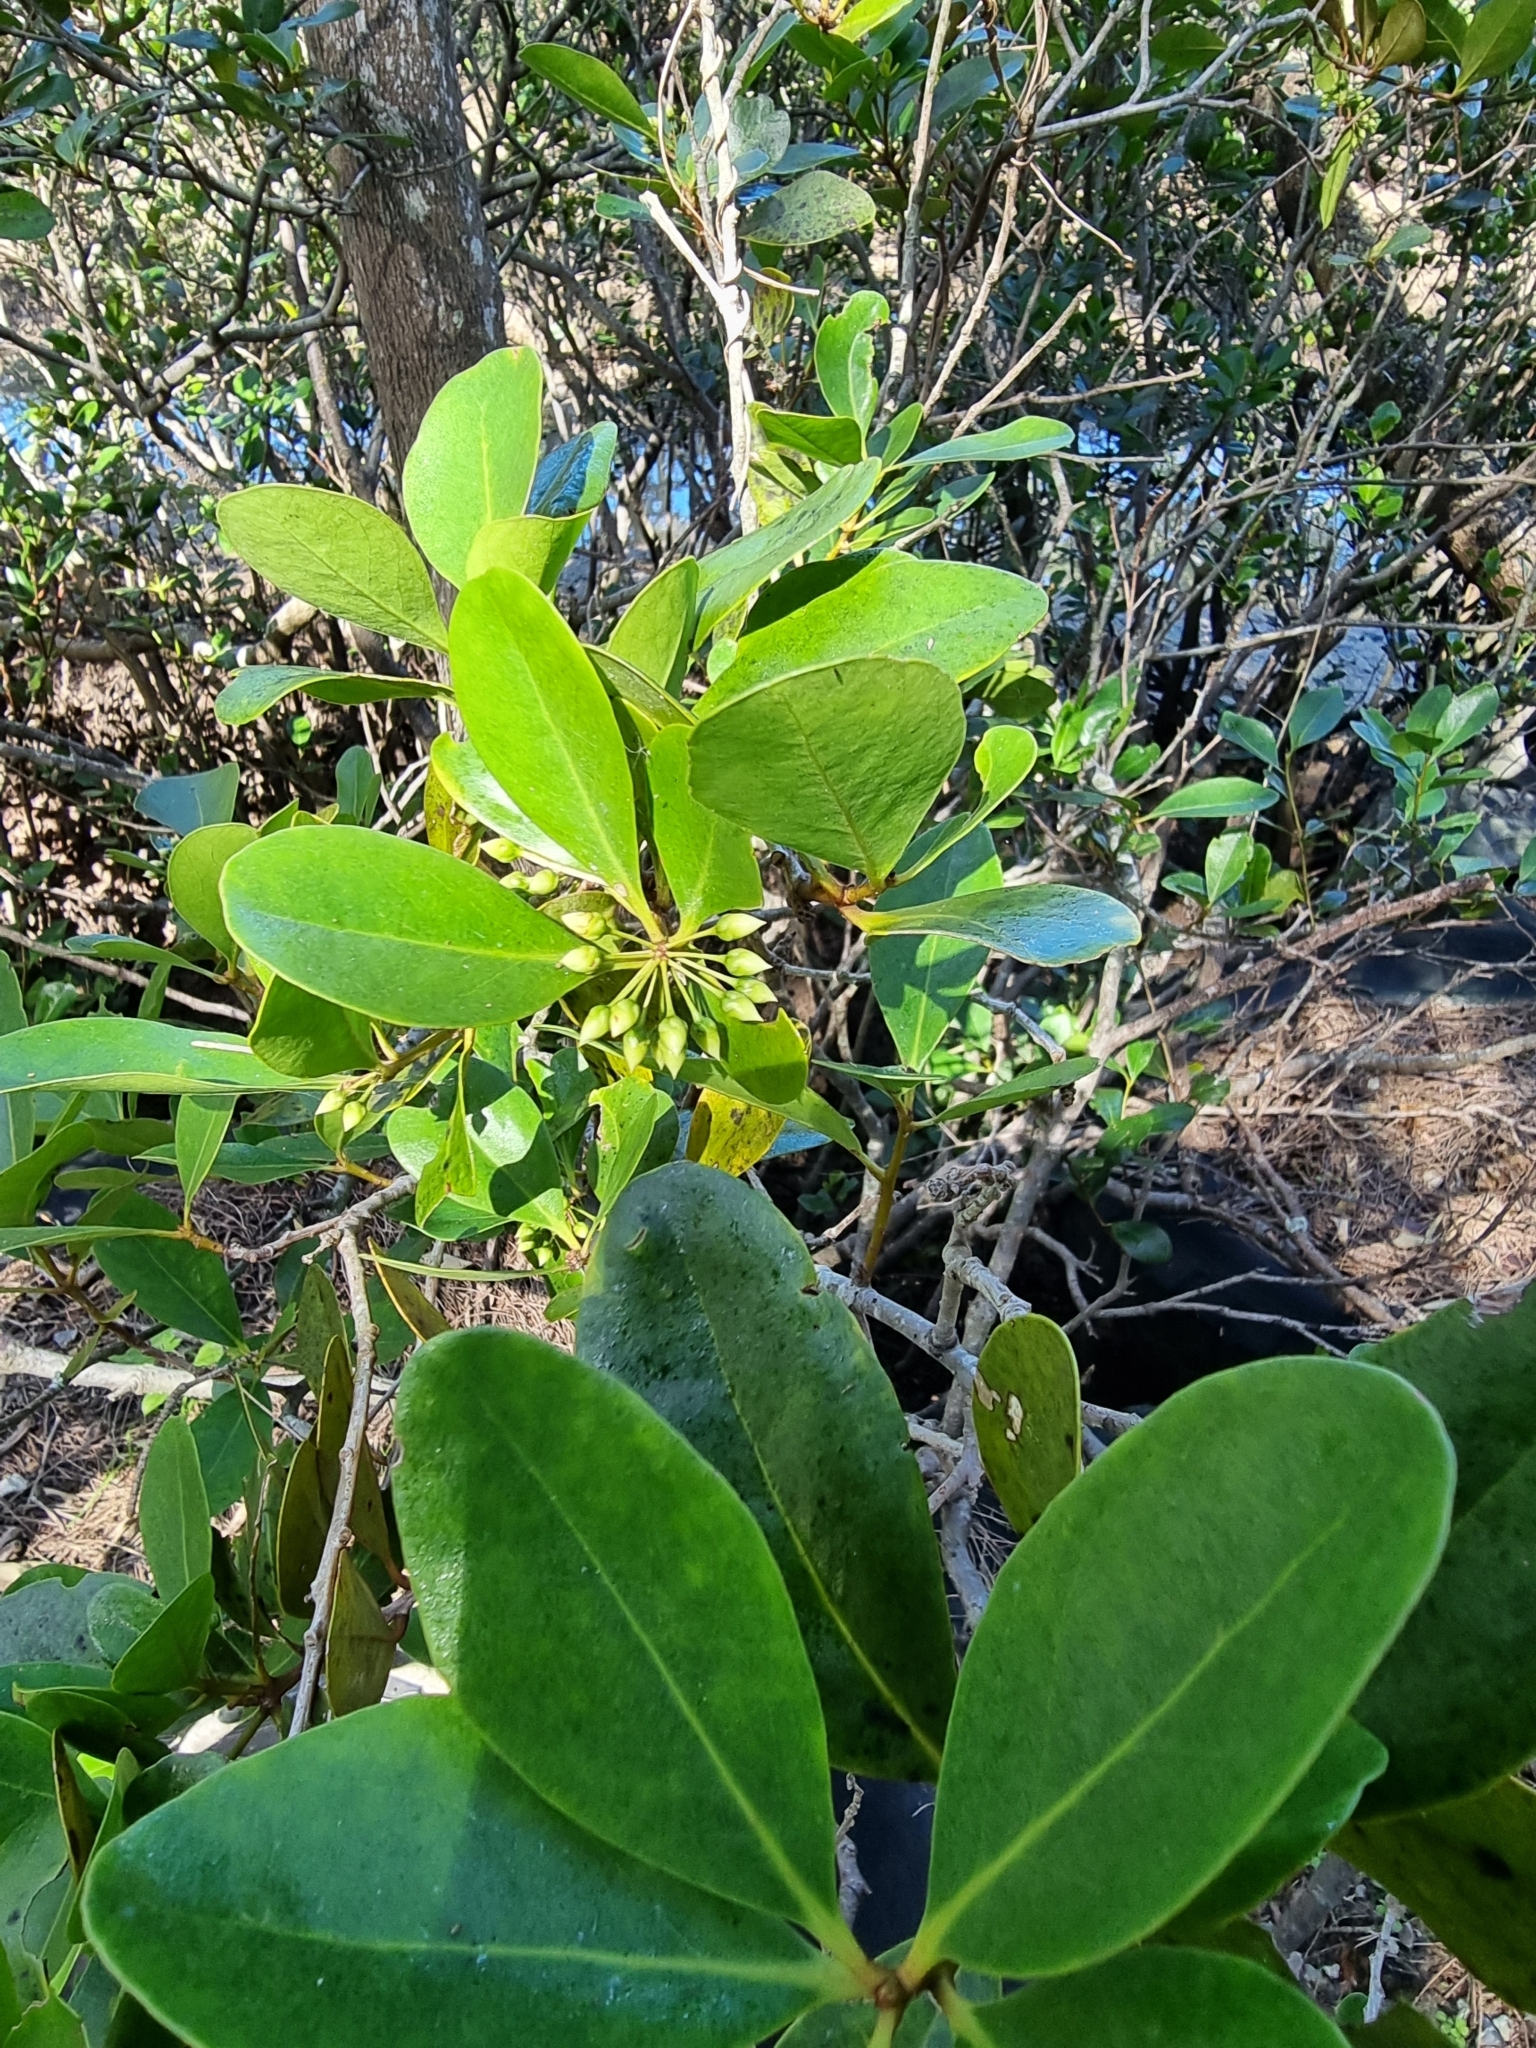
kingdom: Plantae
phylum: Tracheophyta
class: Magnoliopsida
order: Ericales
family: Primulaceae
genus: Aegiceras
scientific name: Aegiceras corniculatum
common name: River mangrove
